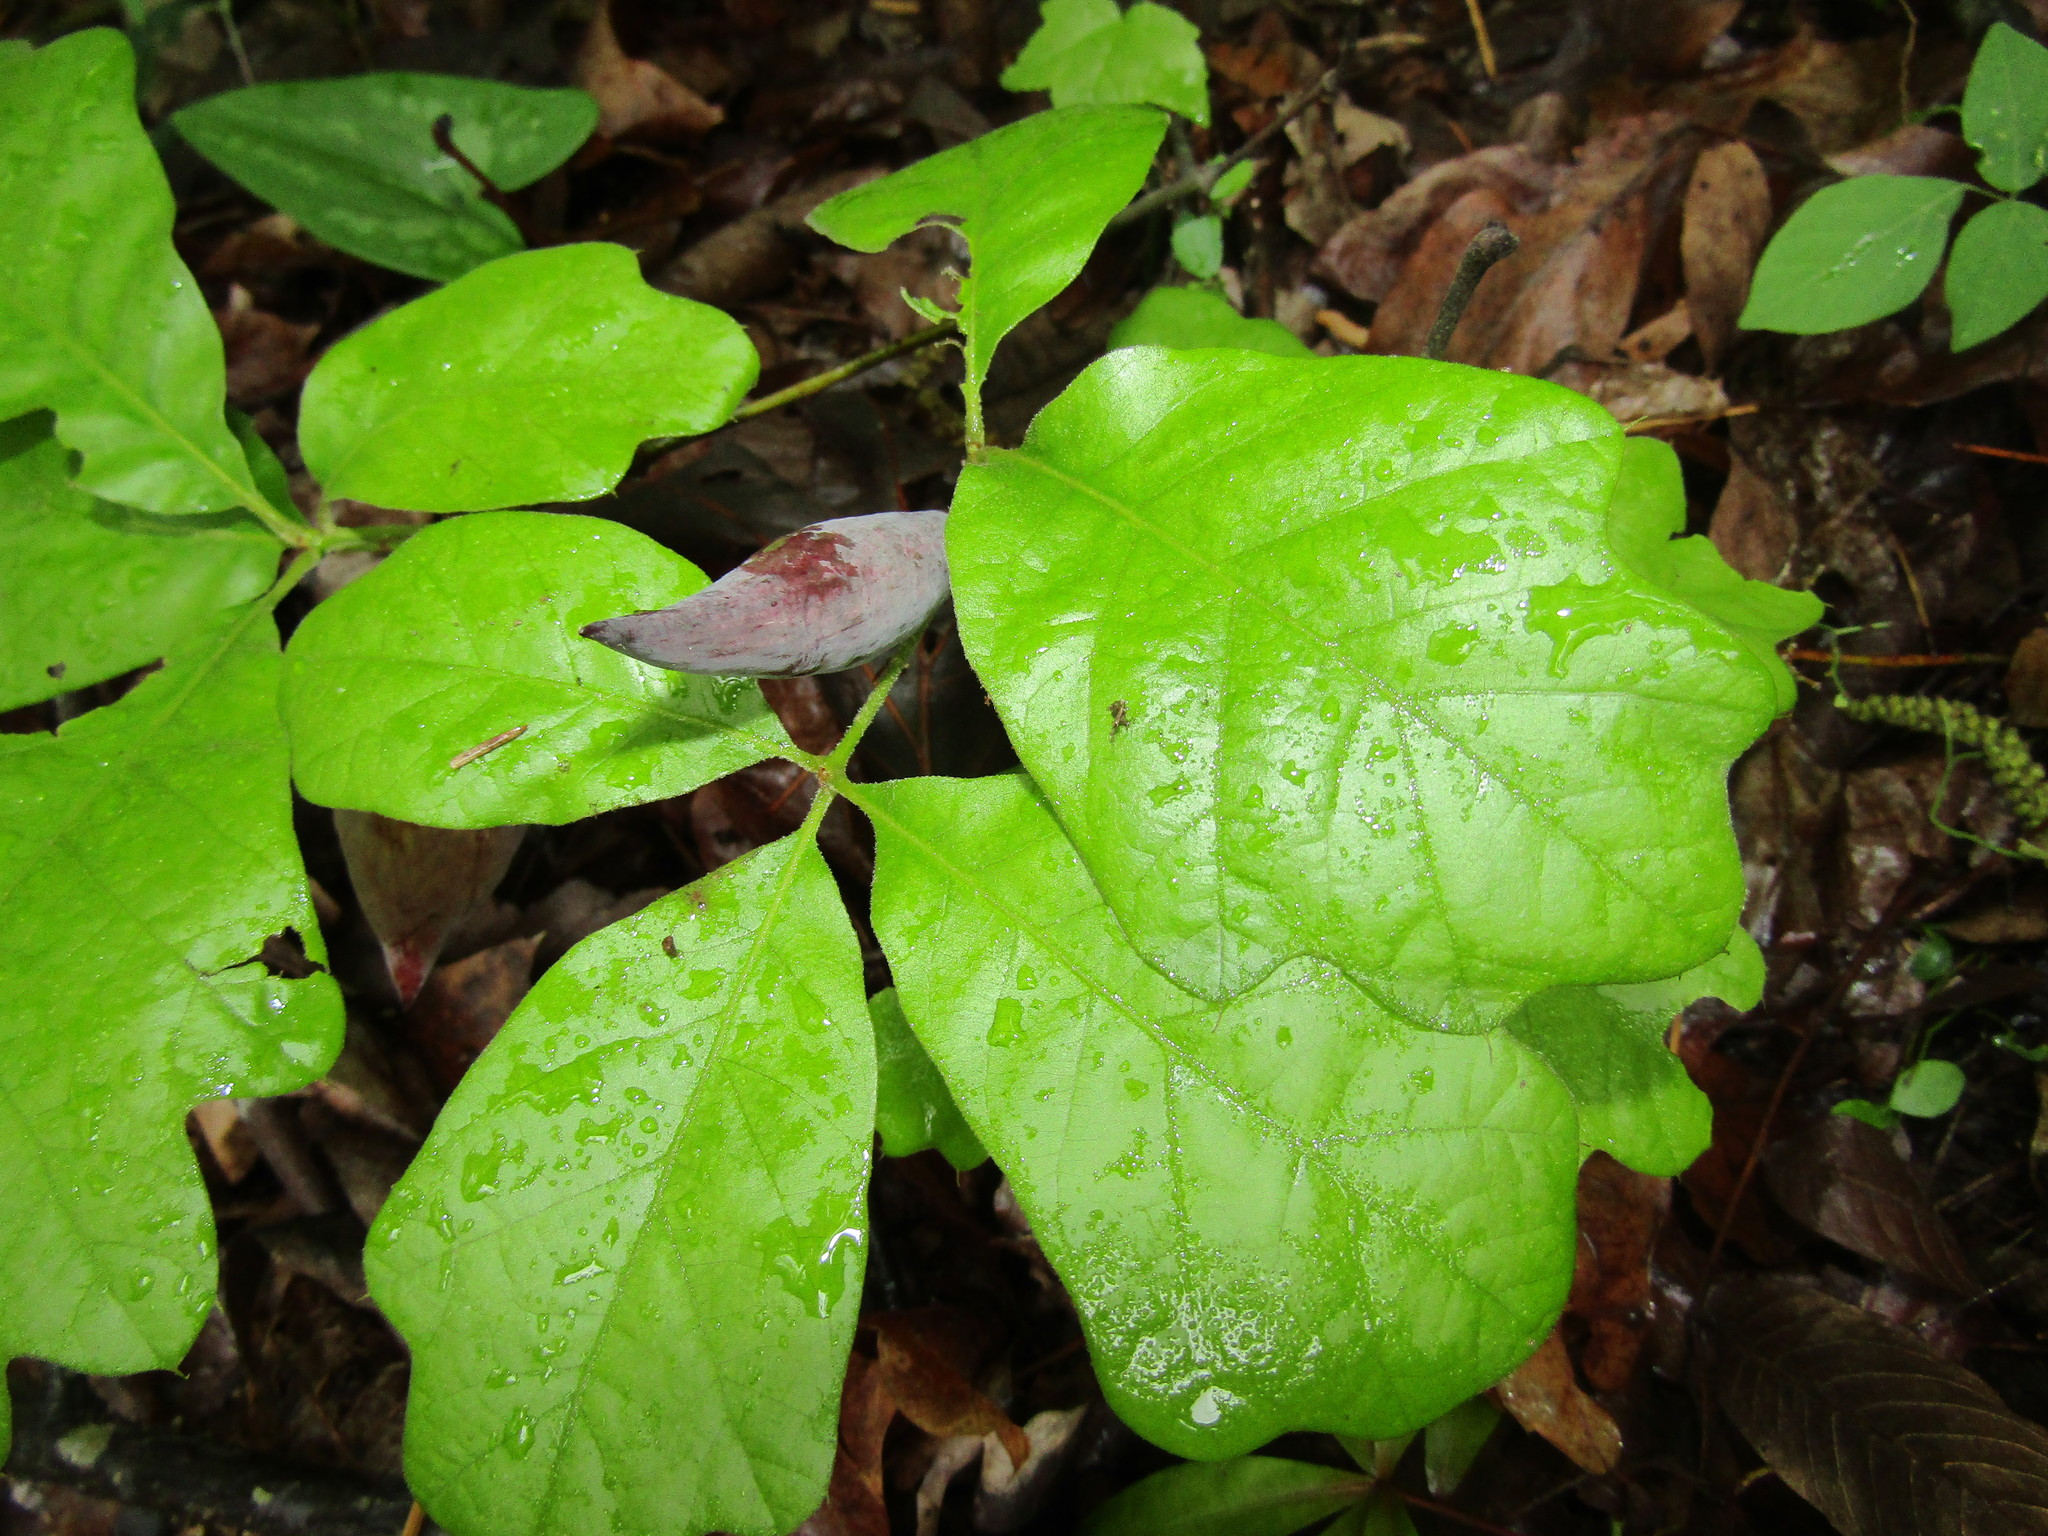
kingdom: Animalia
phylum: Arthropoda
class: Insecta
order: Hymenoptera
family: Cynipidae
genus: Amphibolips
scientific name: Amphibolips
